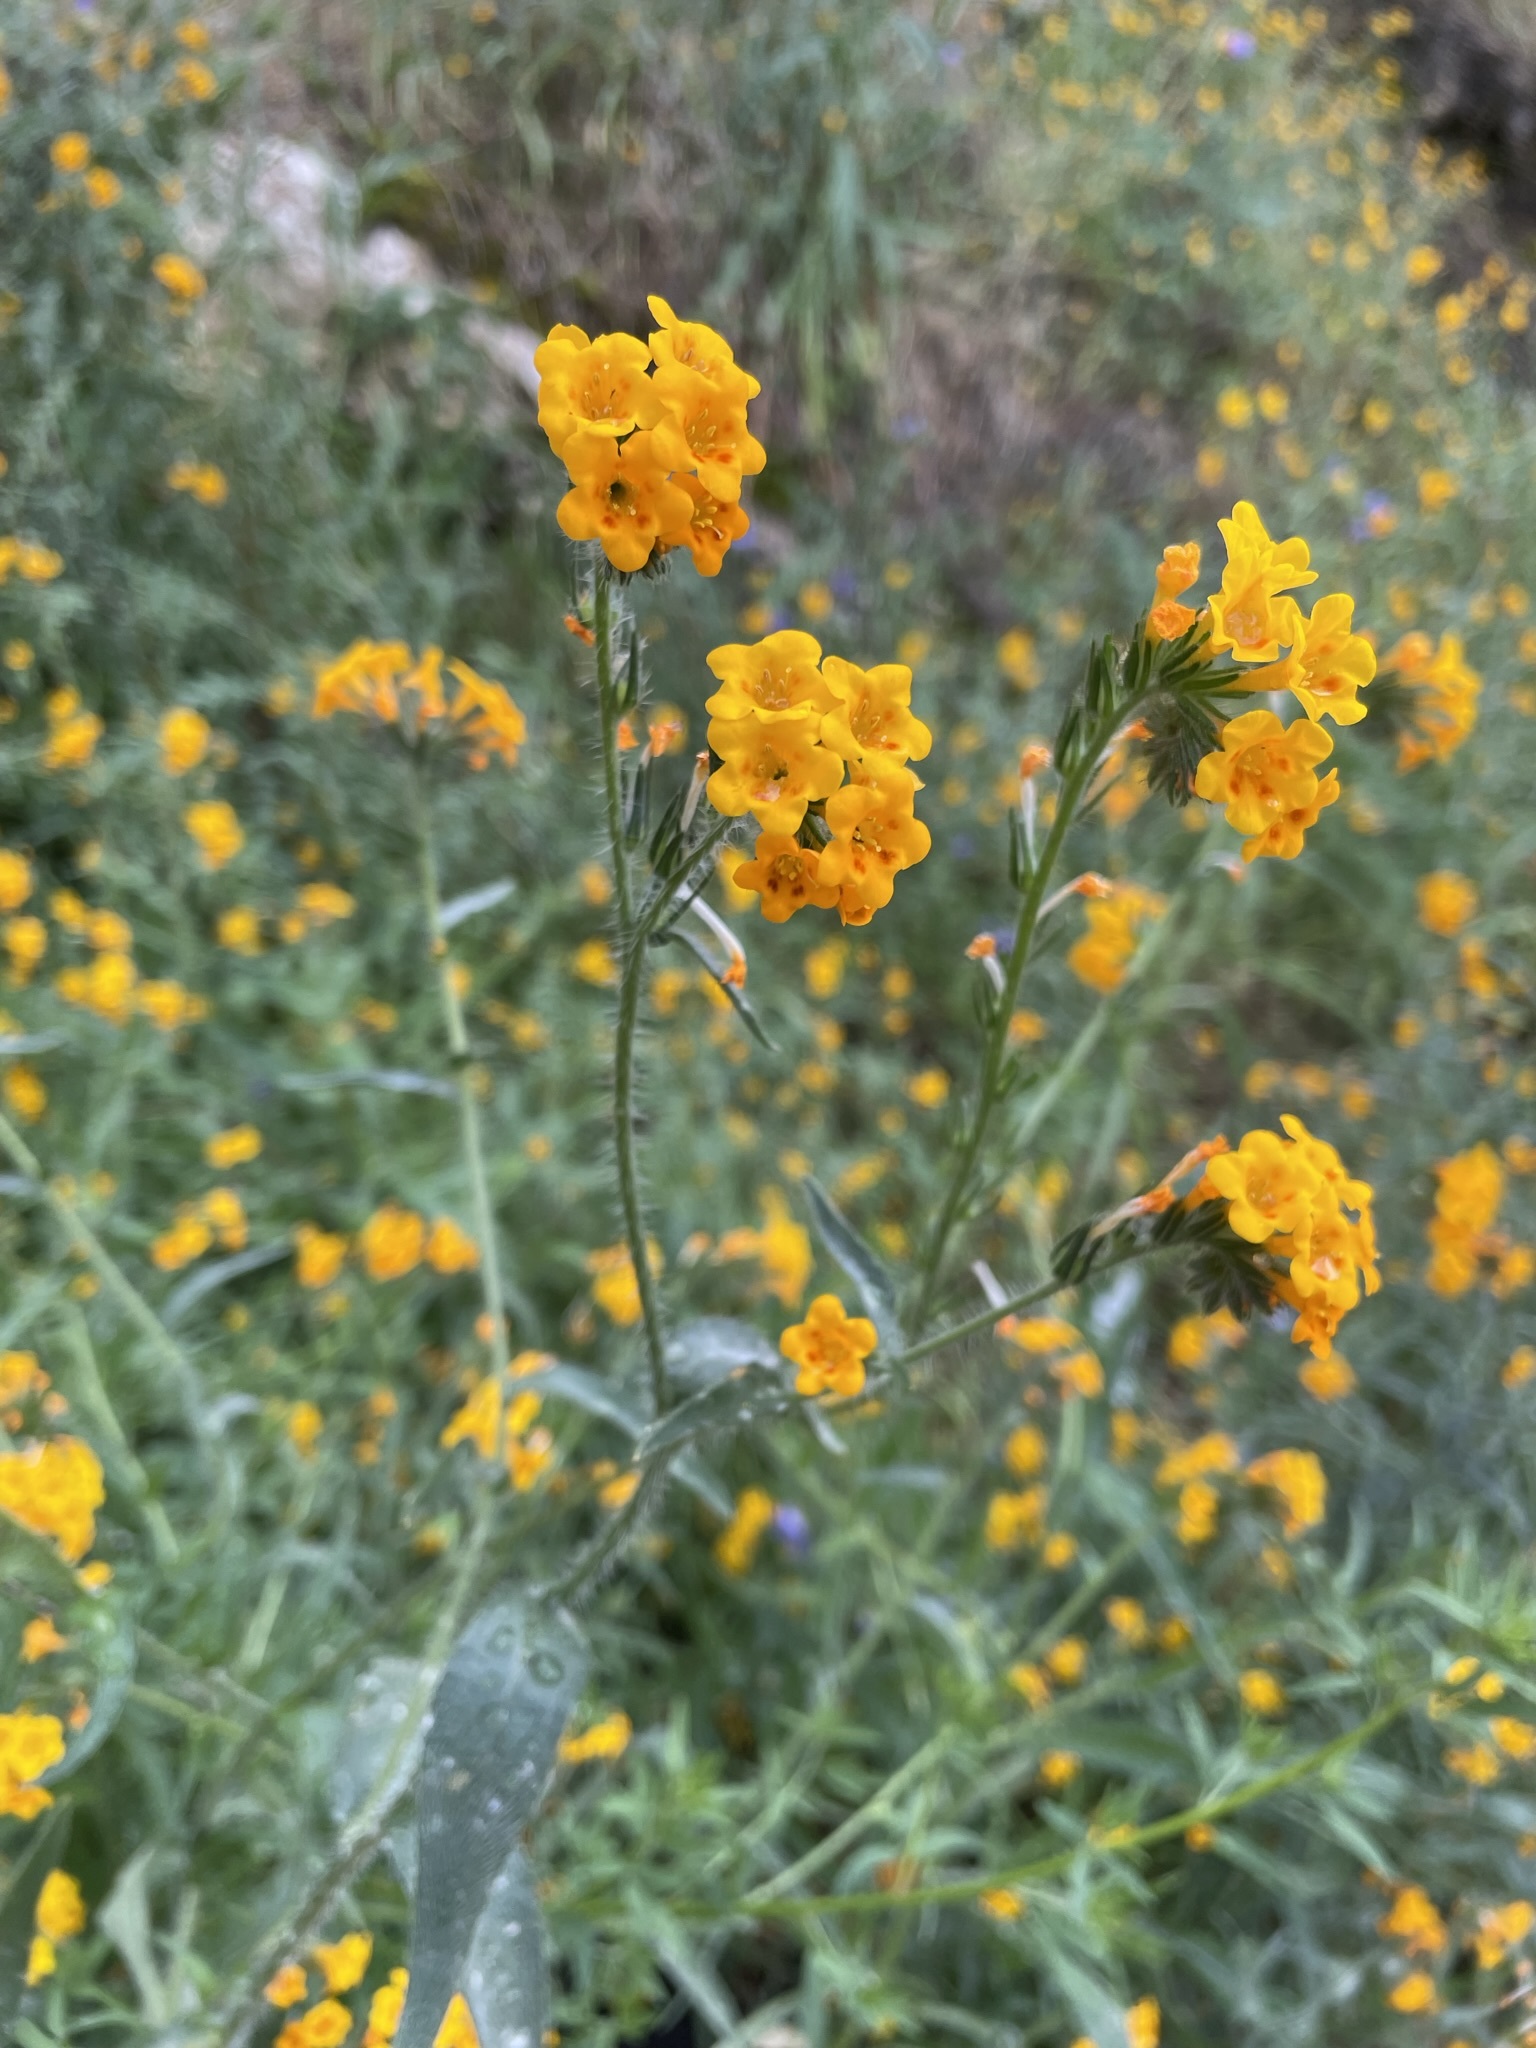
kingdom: Plantae
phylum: Tracheophyta
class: Magnoliopsida
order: Boraginales
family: Boraginaceae
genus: Amsinckia
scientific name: Amsinckia eastwoodiae
